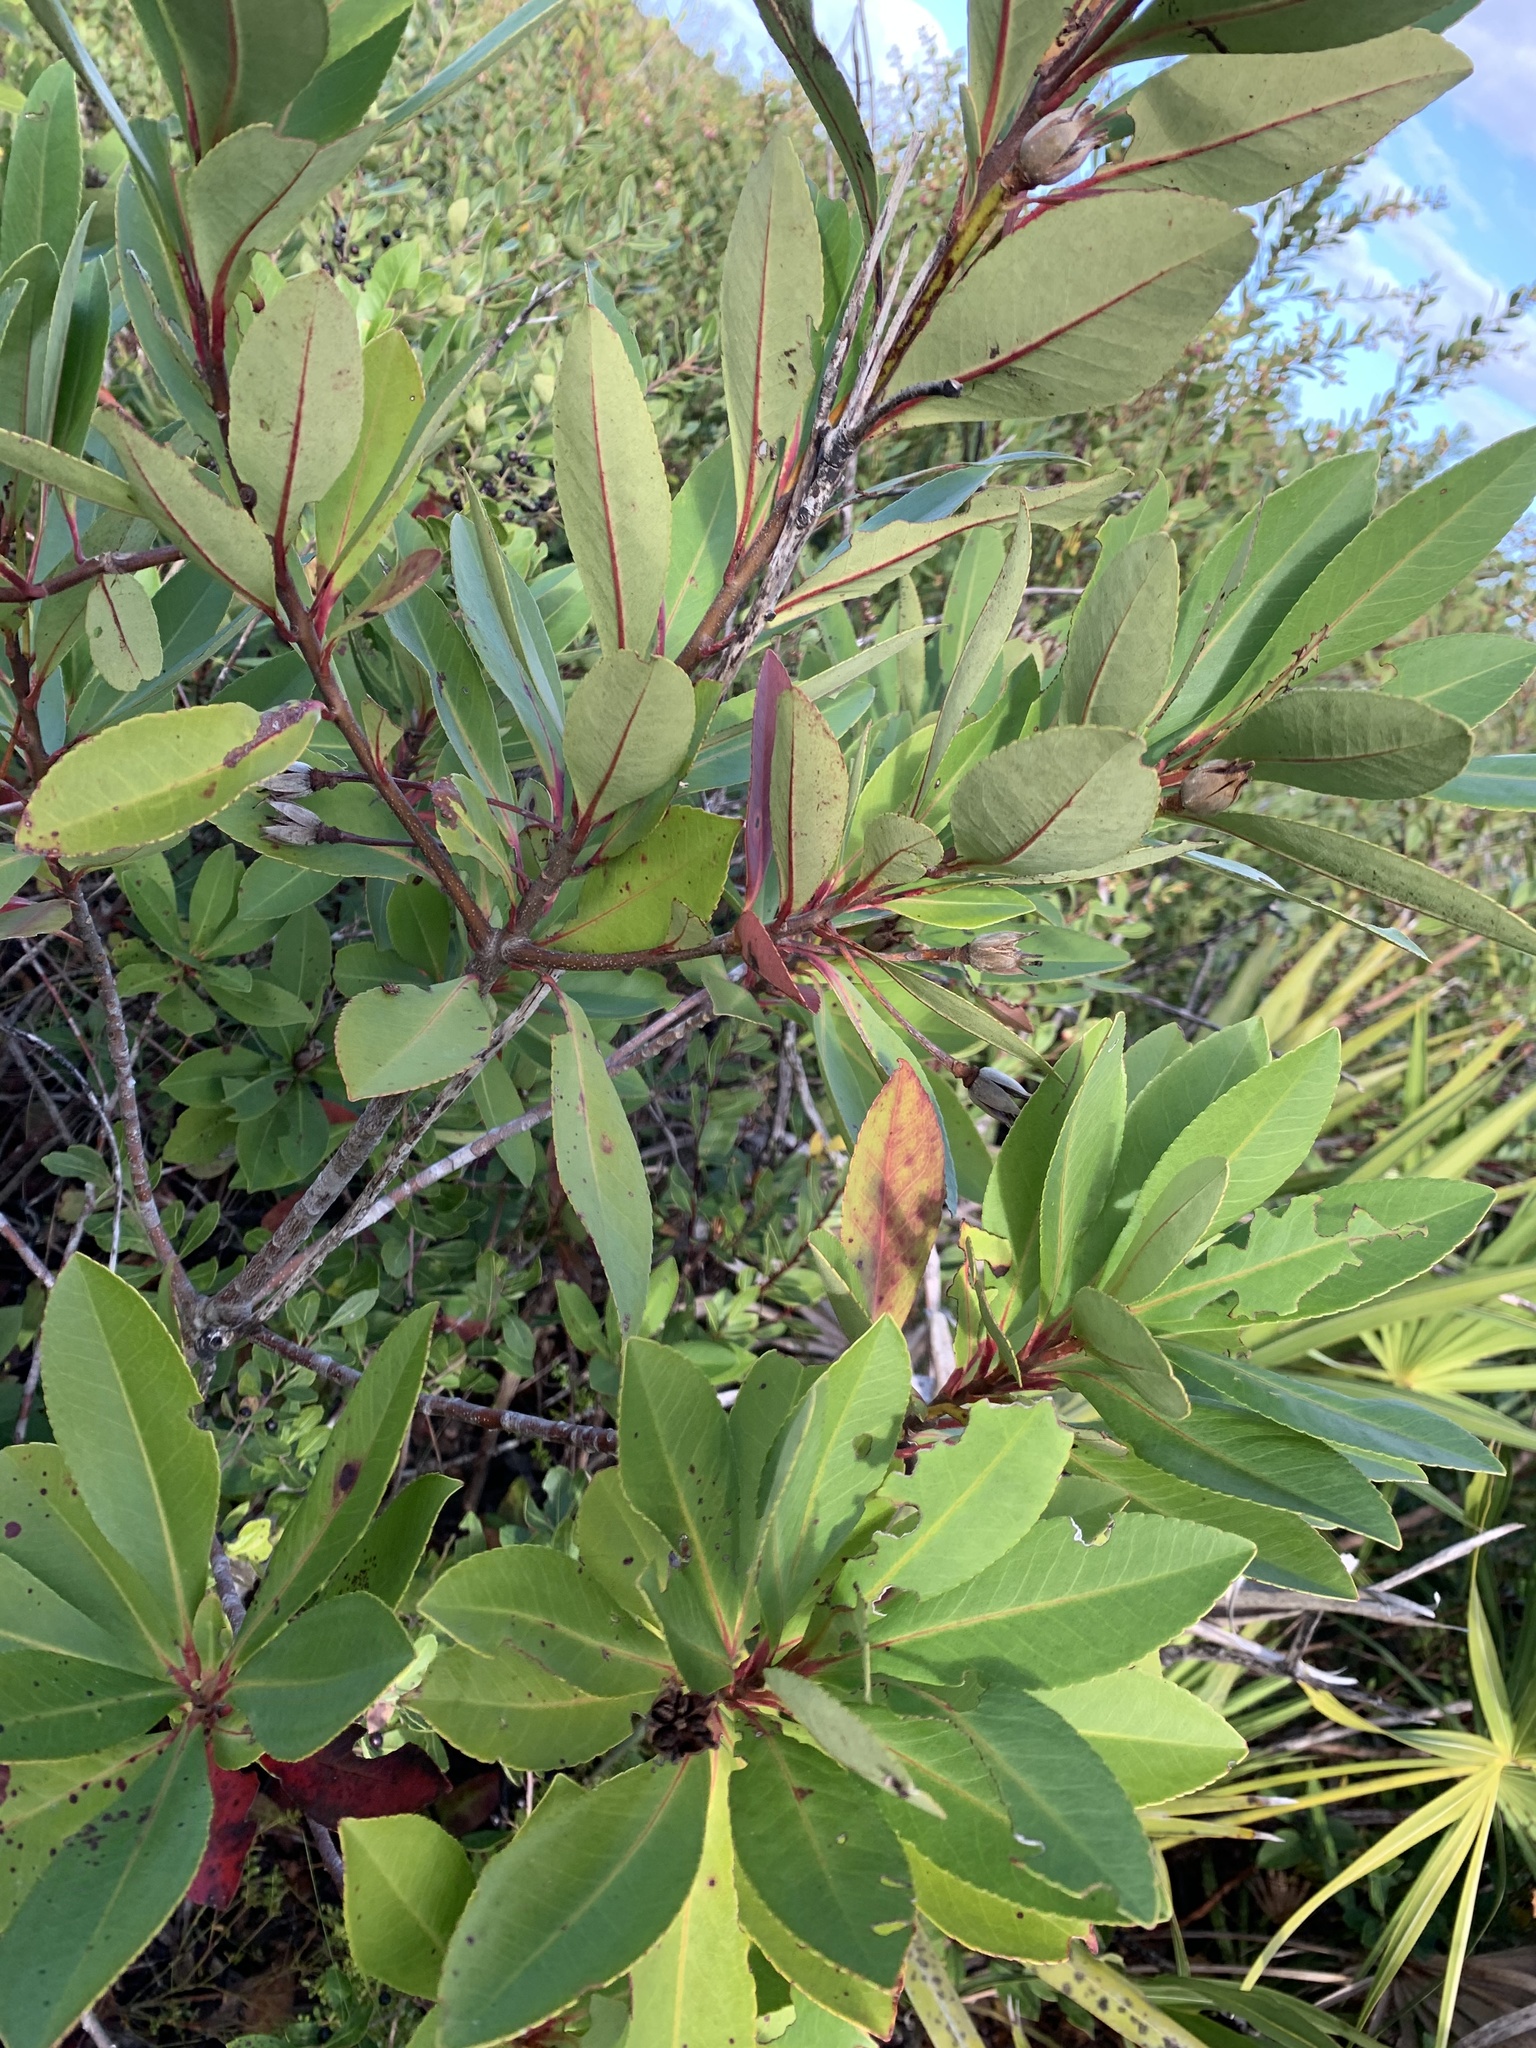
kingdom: Plantae
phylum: Tracheophyta
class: Magnoliopsida
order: Ericales
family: Theaceae
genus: Gordonia
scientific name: Gordonia lasianthus
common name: Loblolly bay
